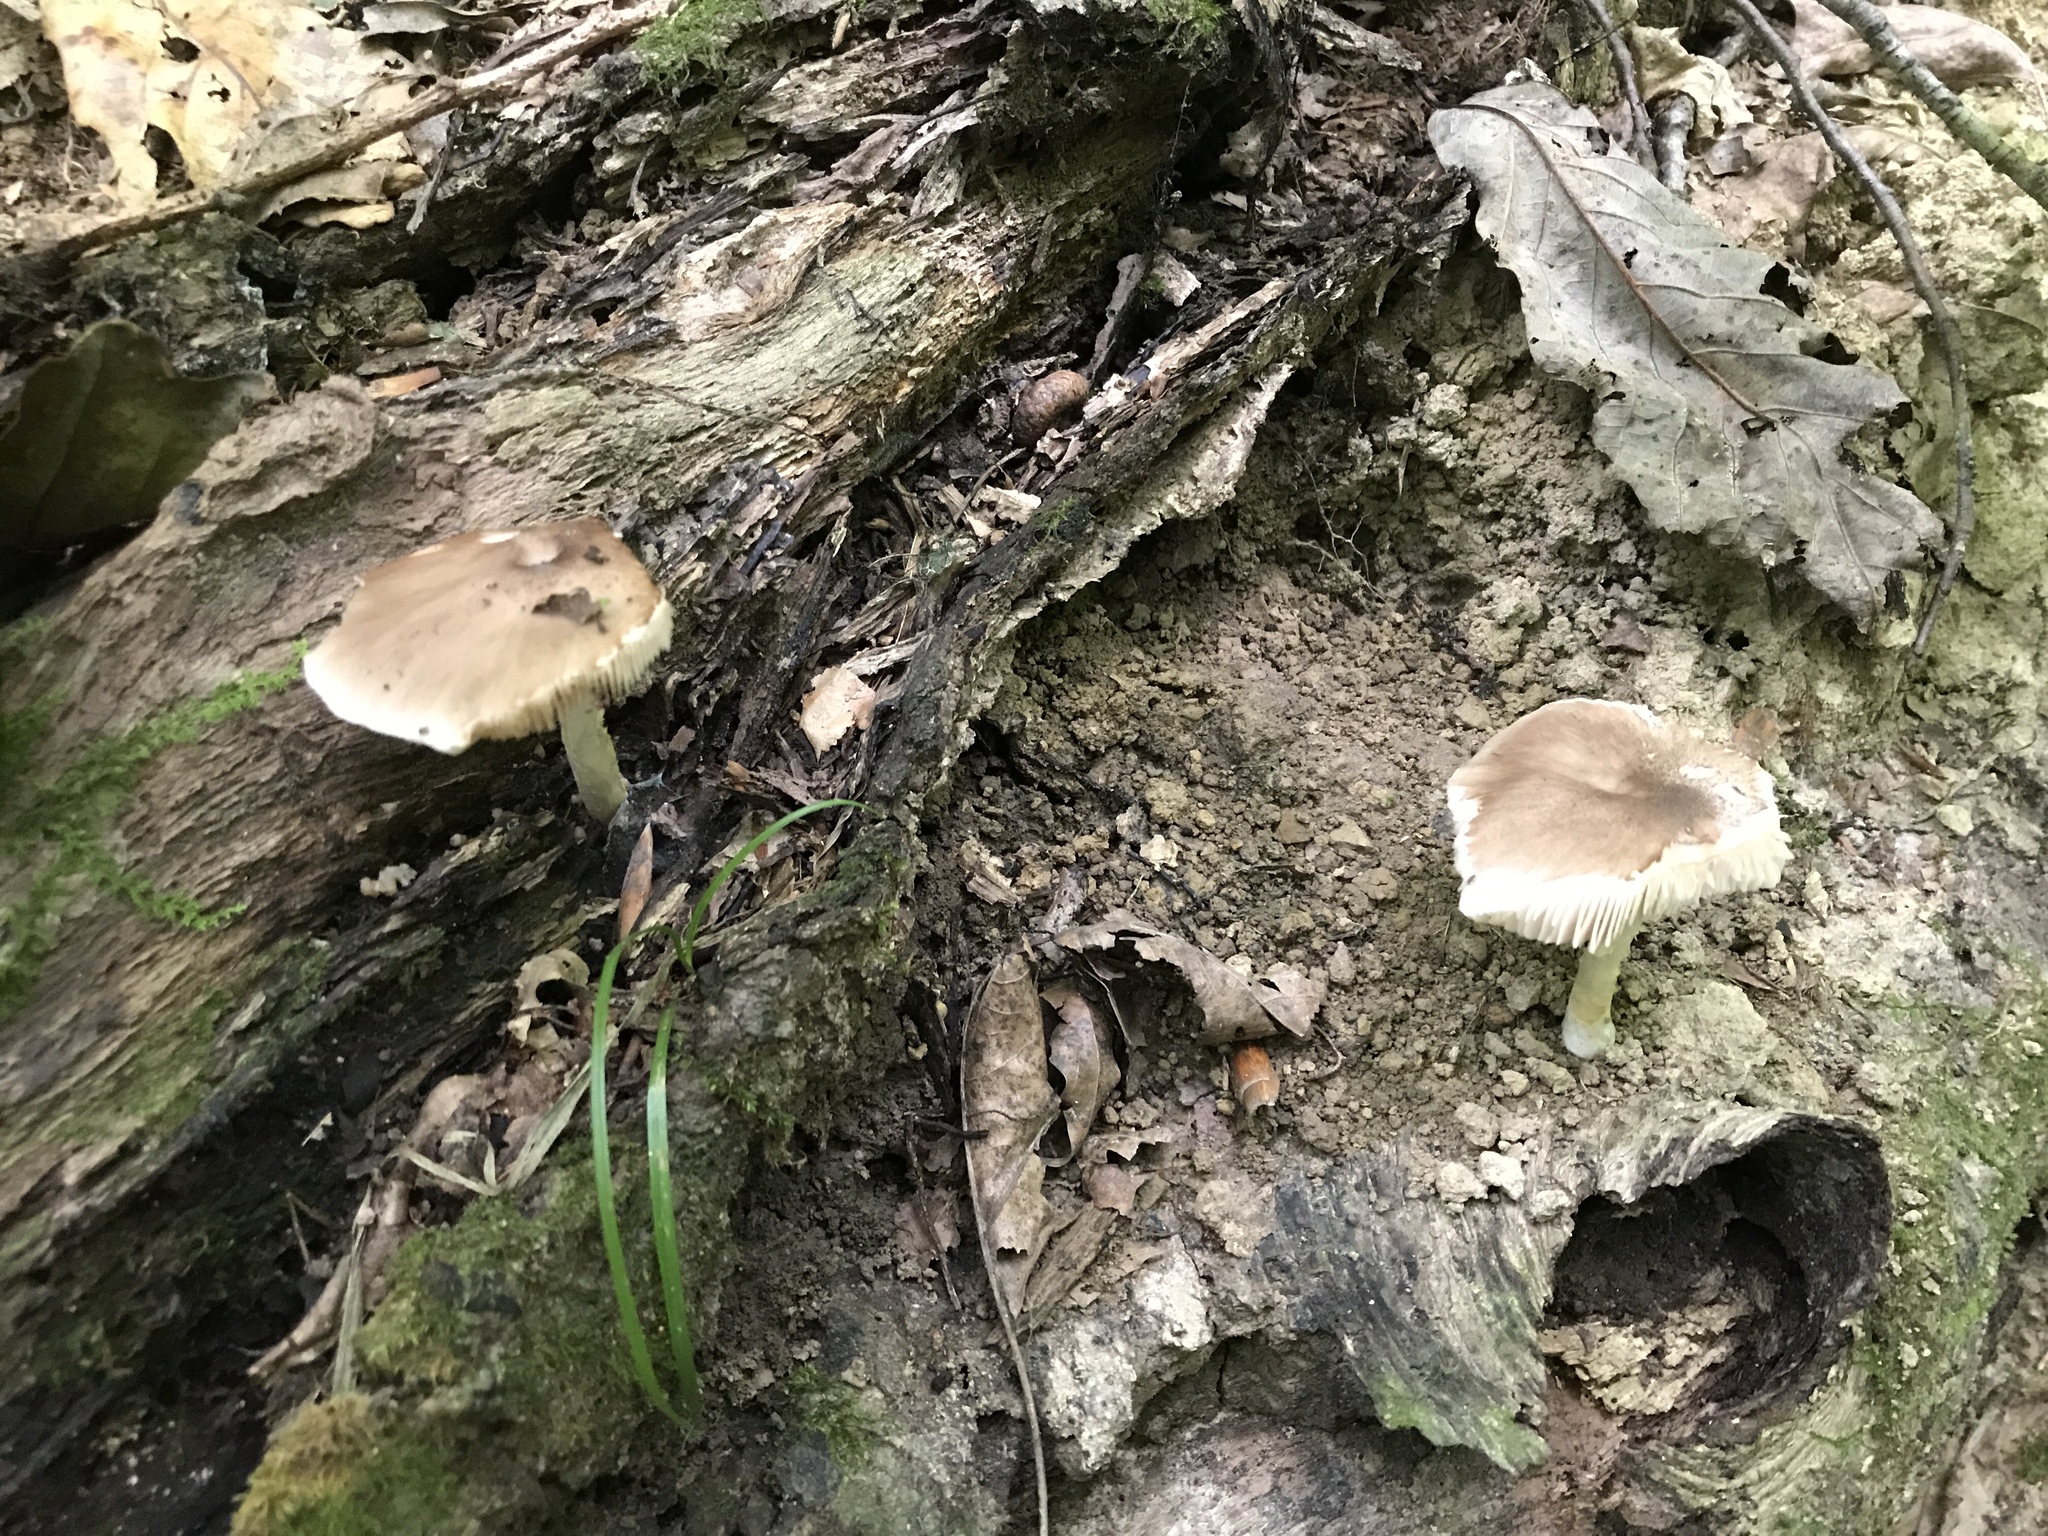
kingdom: Fungi
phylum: Basidiomycota
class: Agaricomycetes
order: Agaricales
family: Pluteaceae
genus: Pluteus
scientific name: Pluteus cervinus
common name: Deer shield
